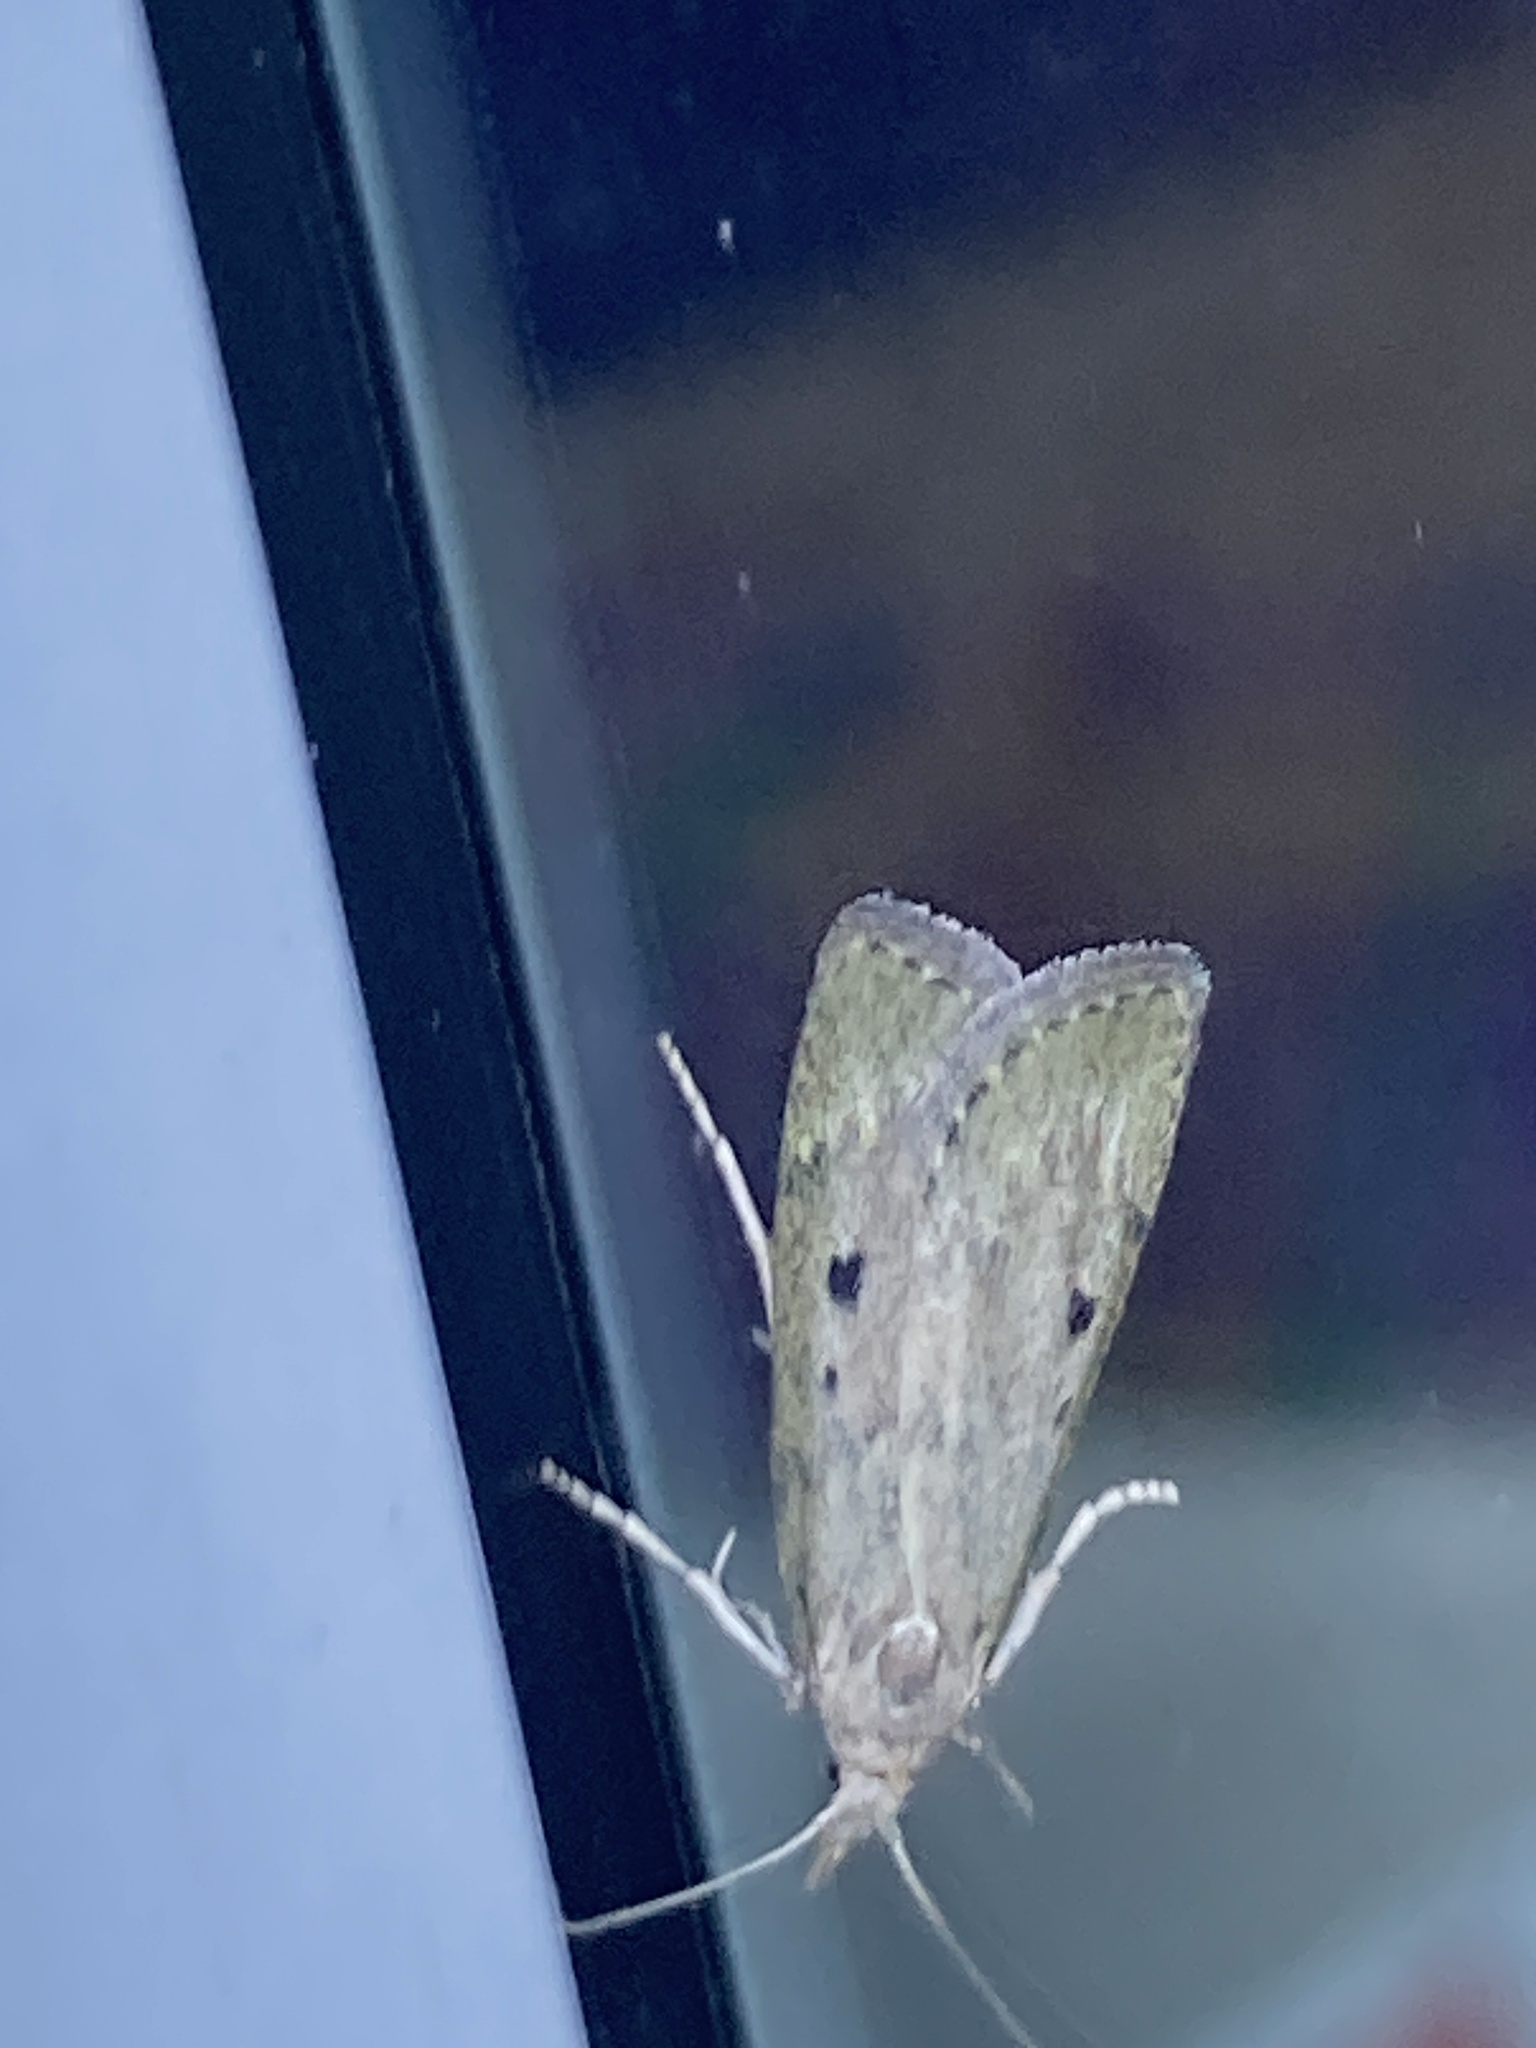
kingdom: Animalia
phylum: Arthropoda
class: Insecta
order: Lepidoptera
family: Pyralidae
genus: Aphomia
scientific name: Aphomia sociella
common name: Bee moth
